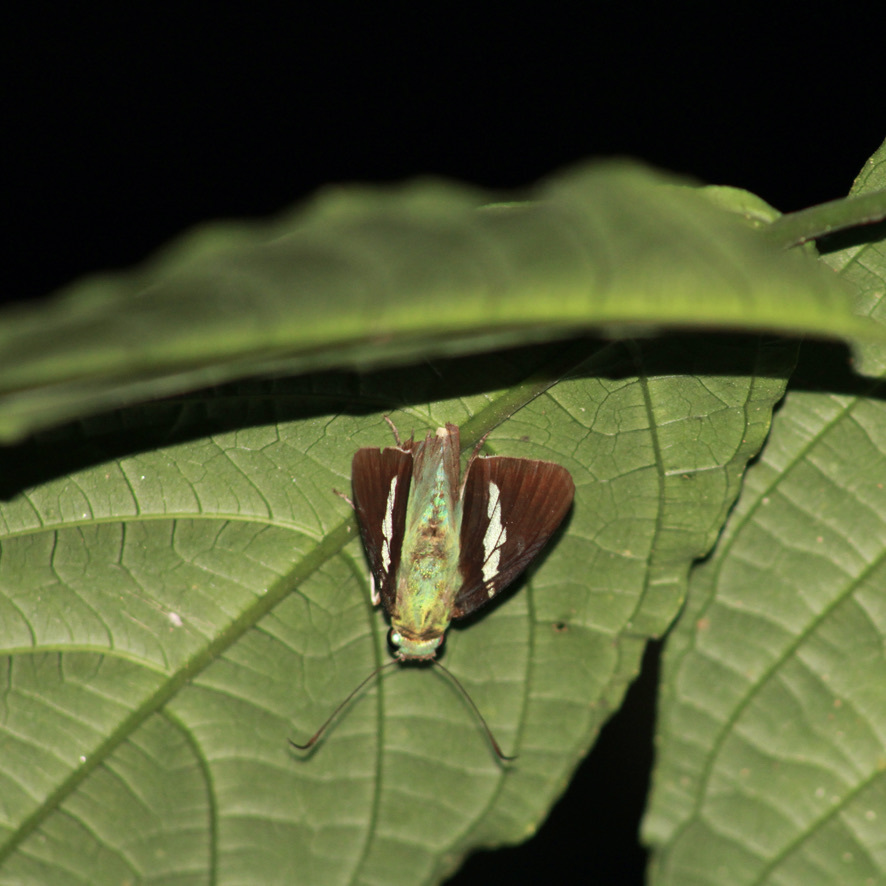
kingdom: Animalia
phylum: Arthropoda
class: Insecta
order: Lepidoptera
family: Hesperiidae
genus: Astraptes
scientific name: Astraptes apastus
